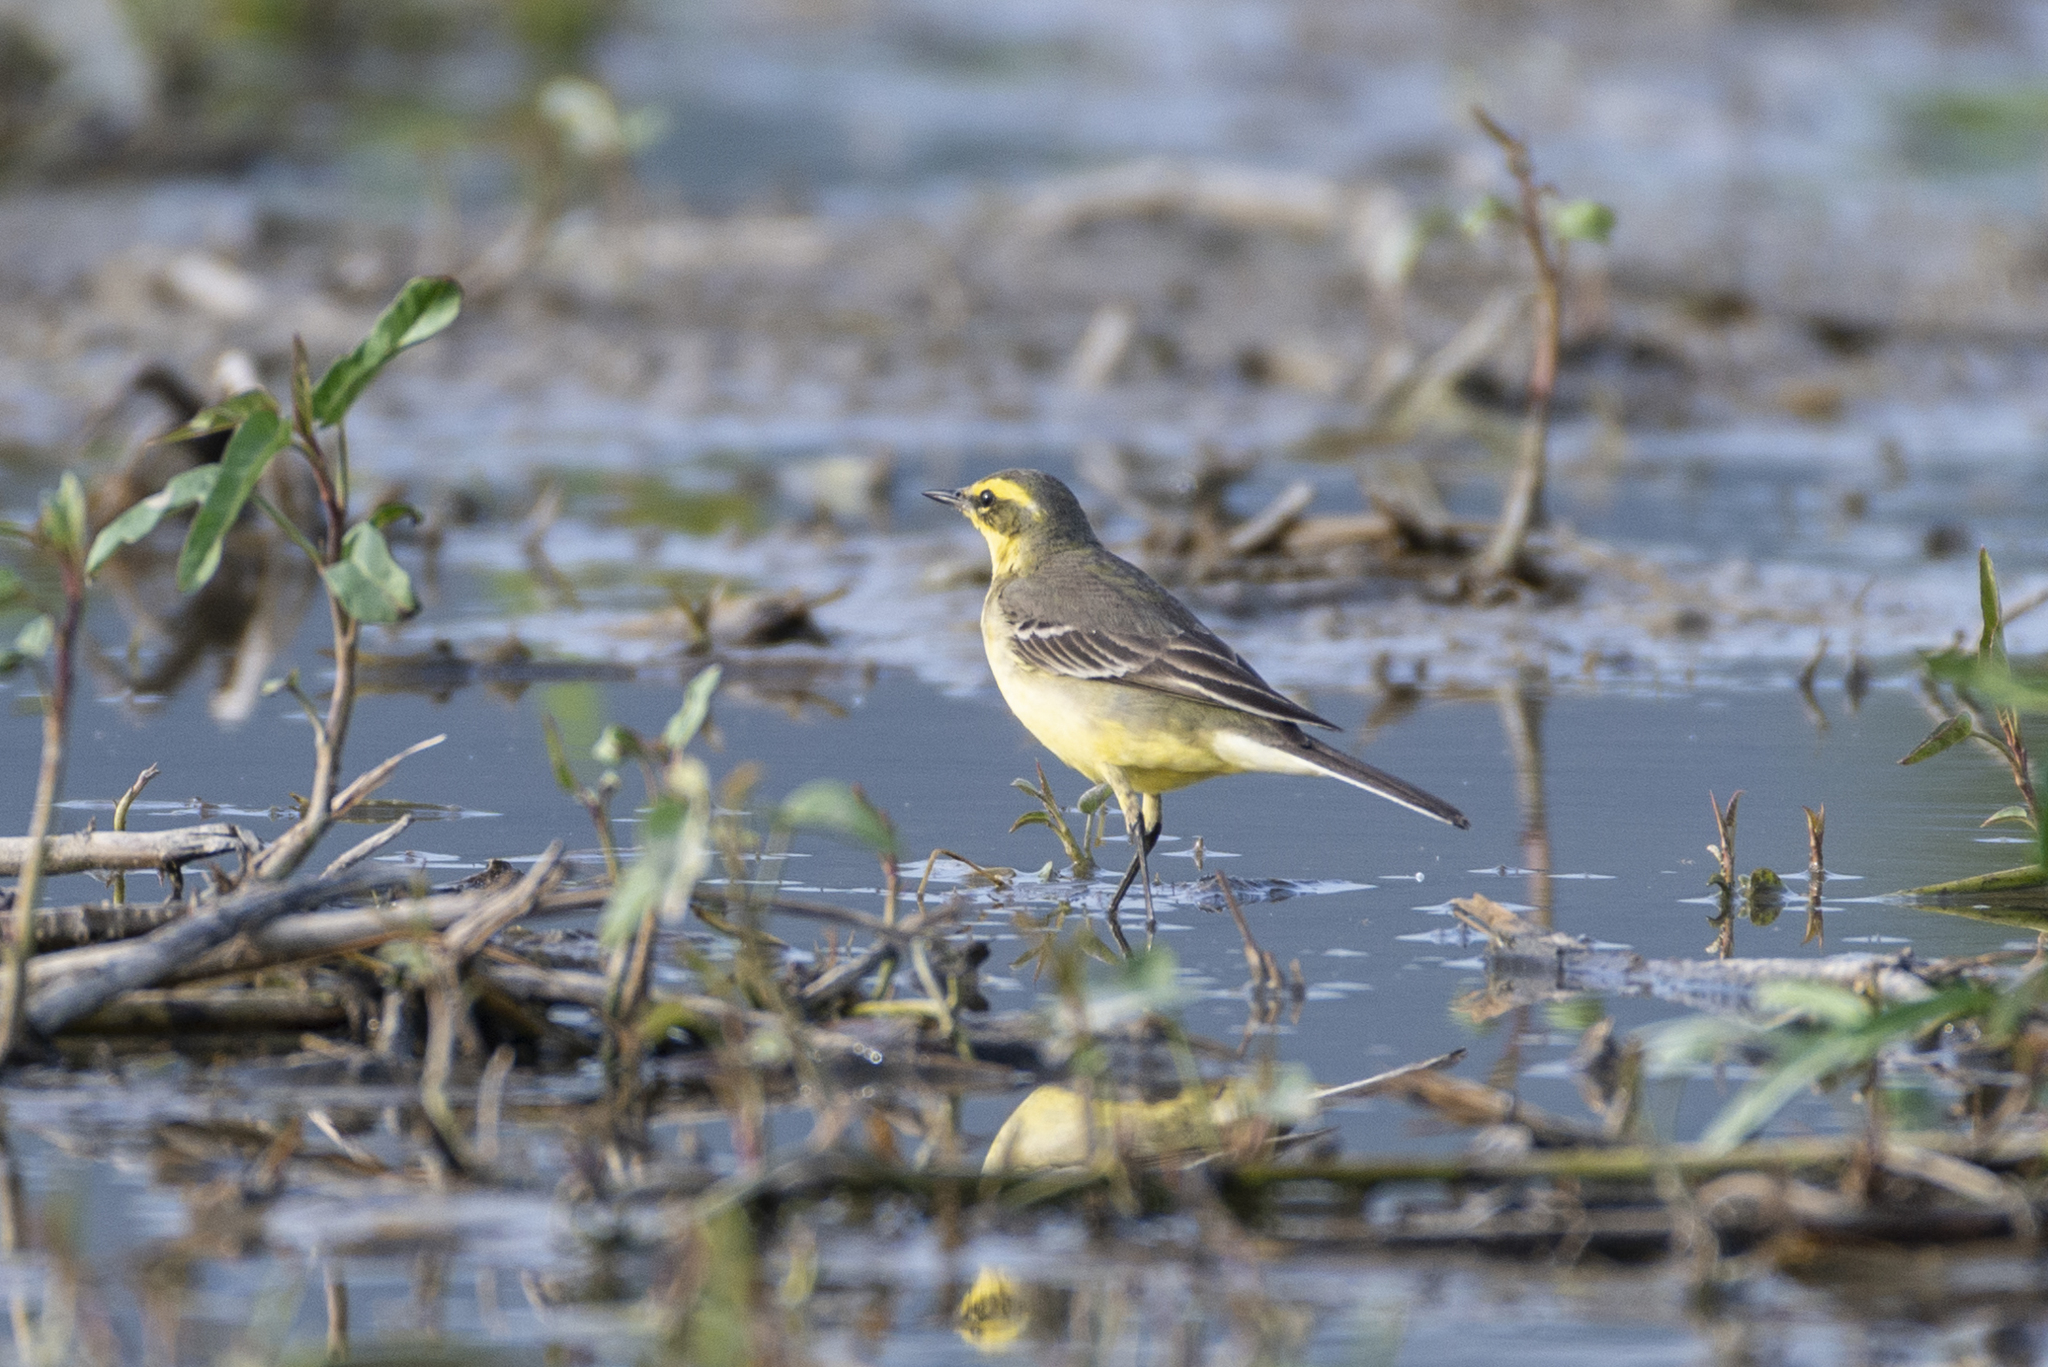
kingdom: Animalia
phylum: Chordata
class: Aves
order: Passeriformes
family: Motacillidae
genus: Motacilla
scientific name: Motacilla tschutschensis
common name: Eastern yellow wagtail
